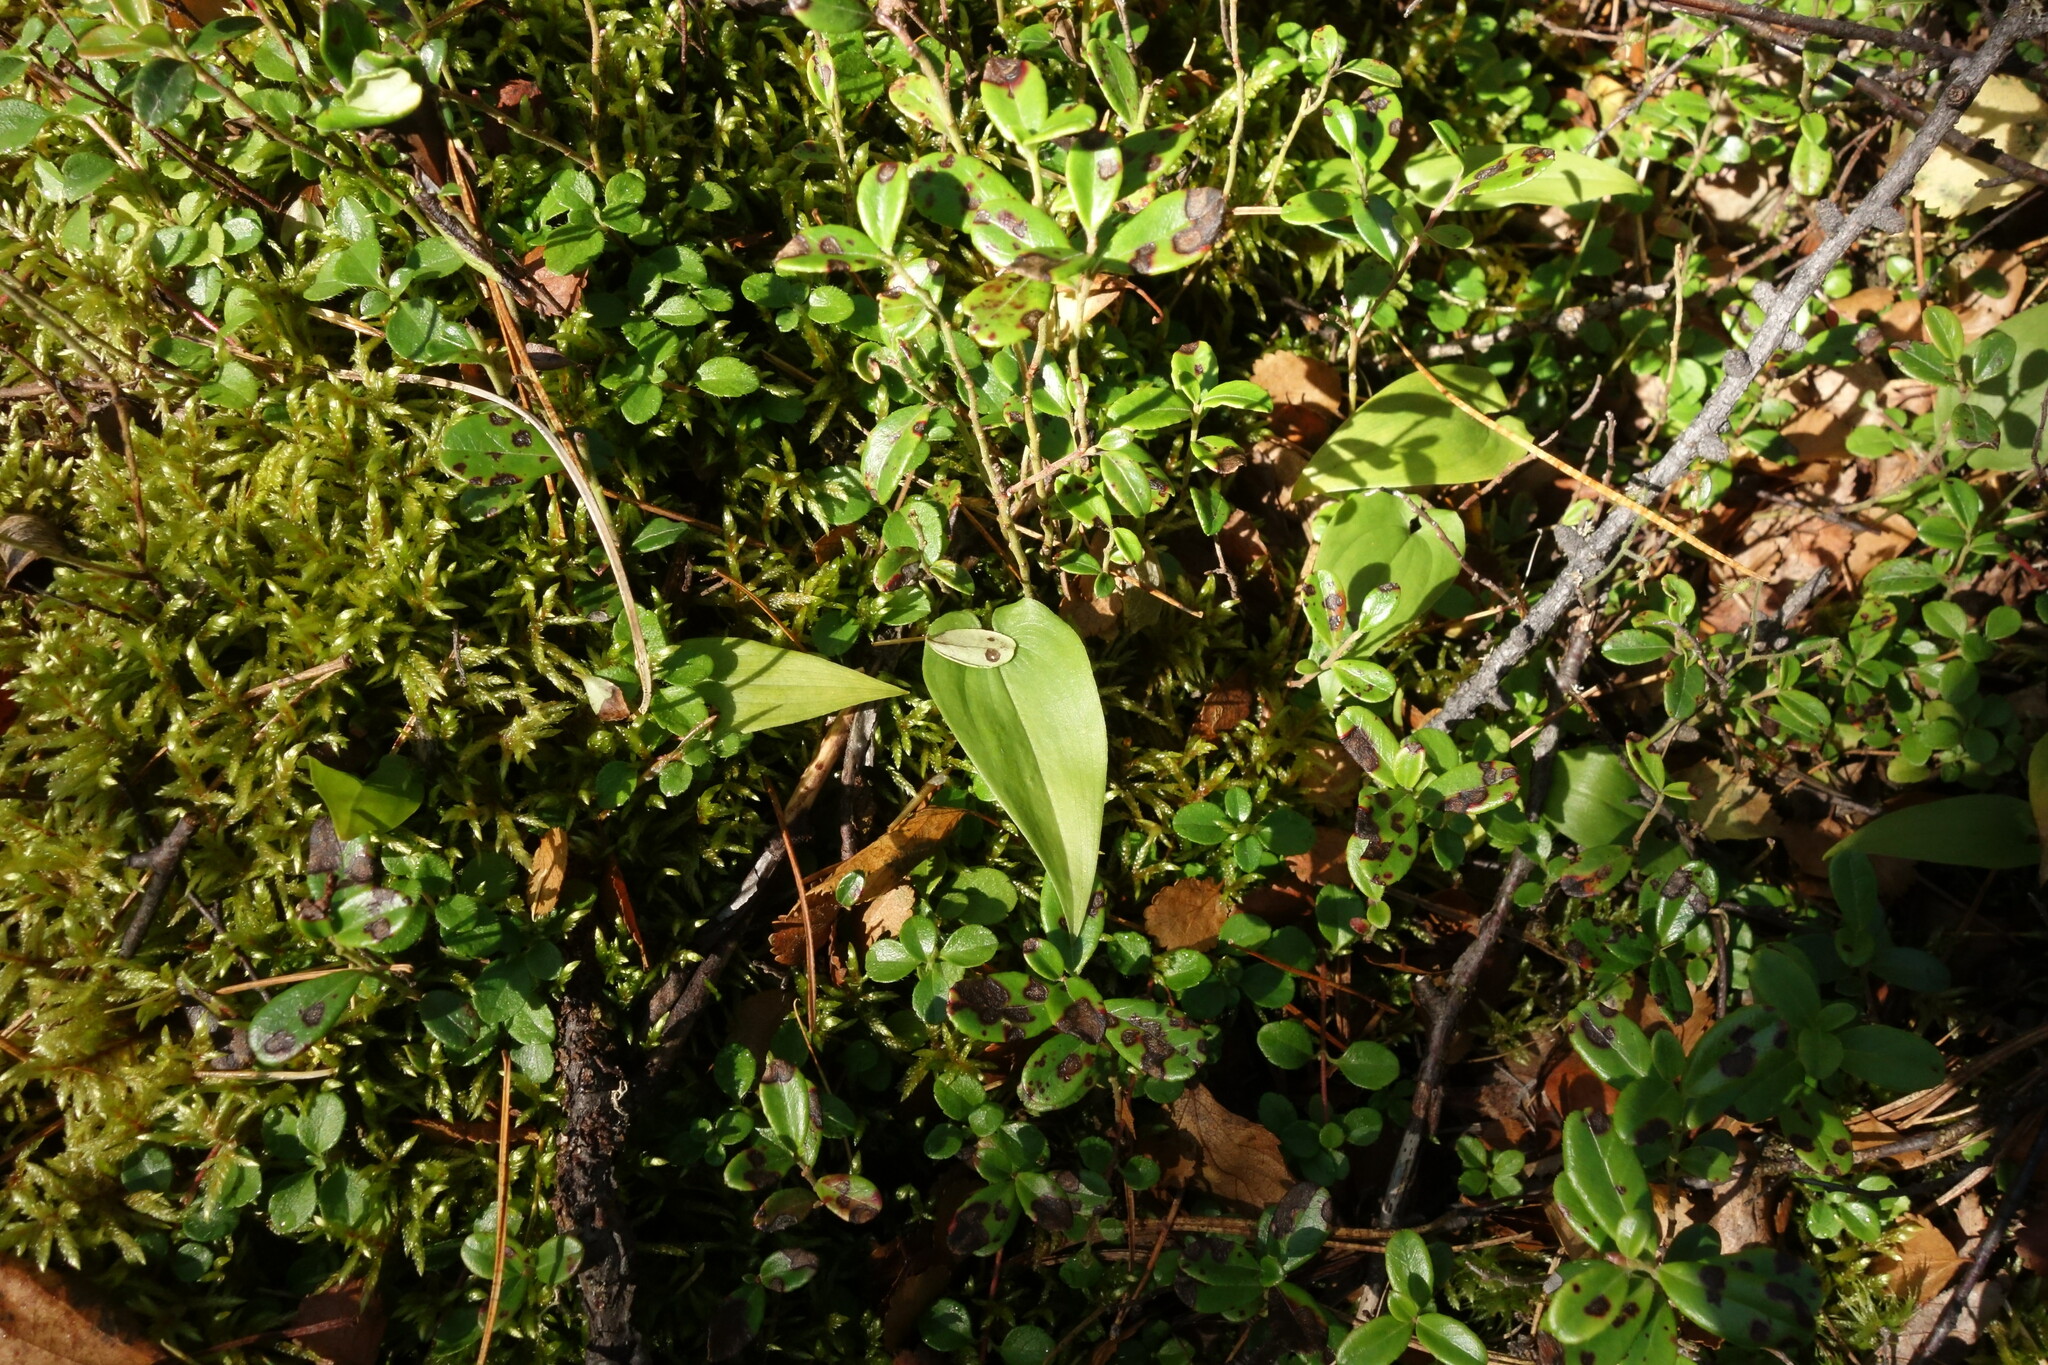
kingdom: Plantae
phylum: Tracheophyta
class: Liliopsida
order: Asparagales
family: Asparagaceae
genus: Maianthemum
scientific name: Maianthemum bifolium
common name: May lily
